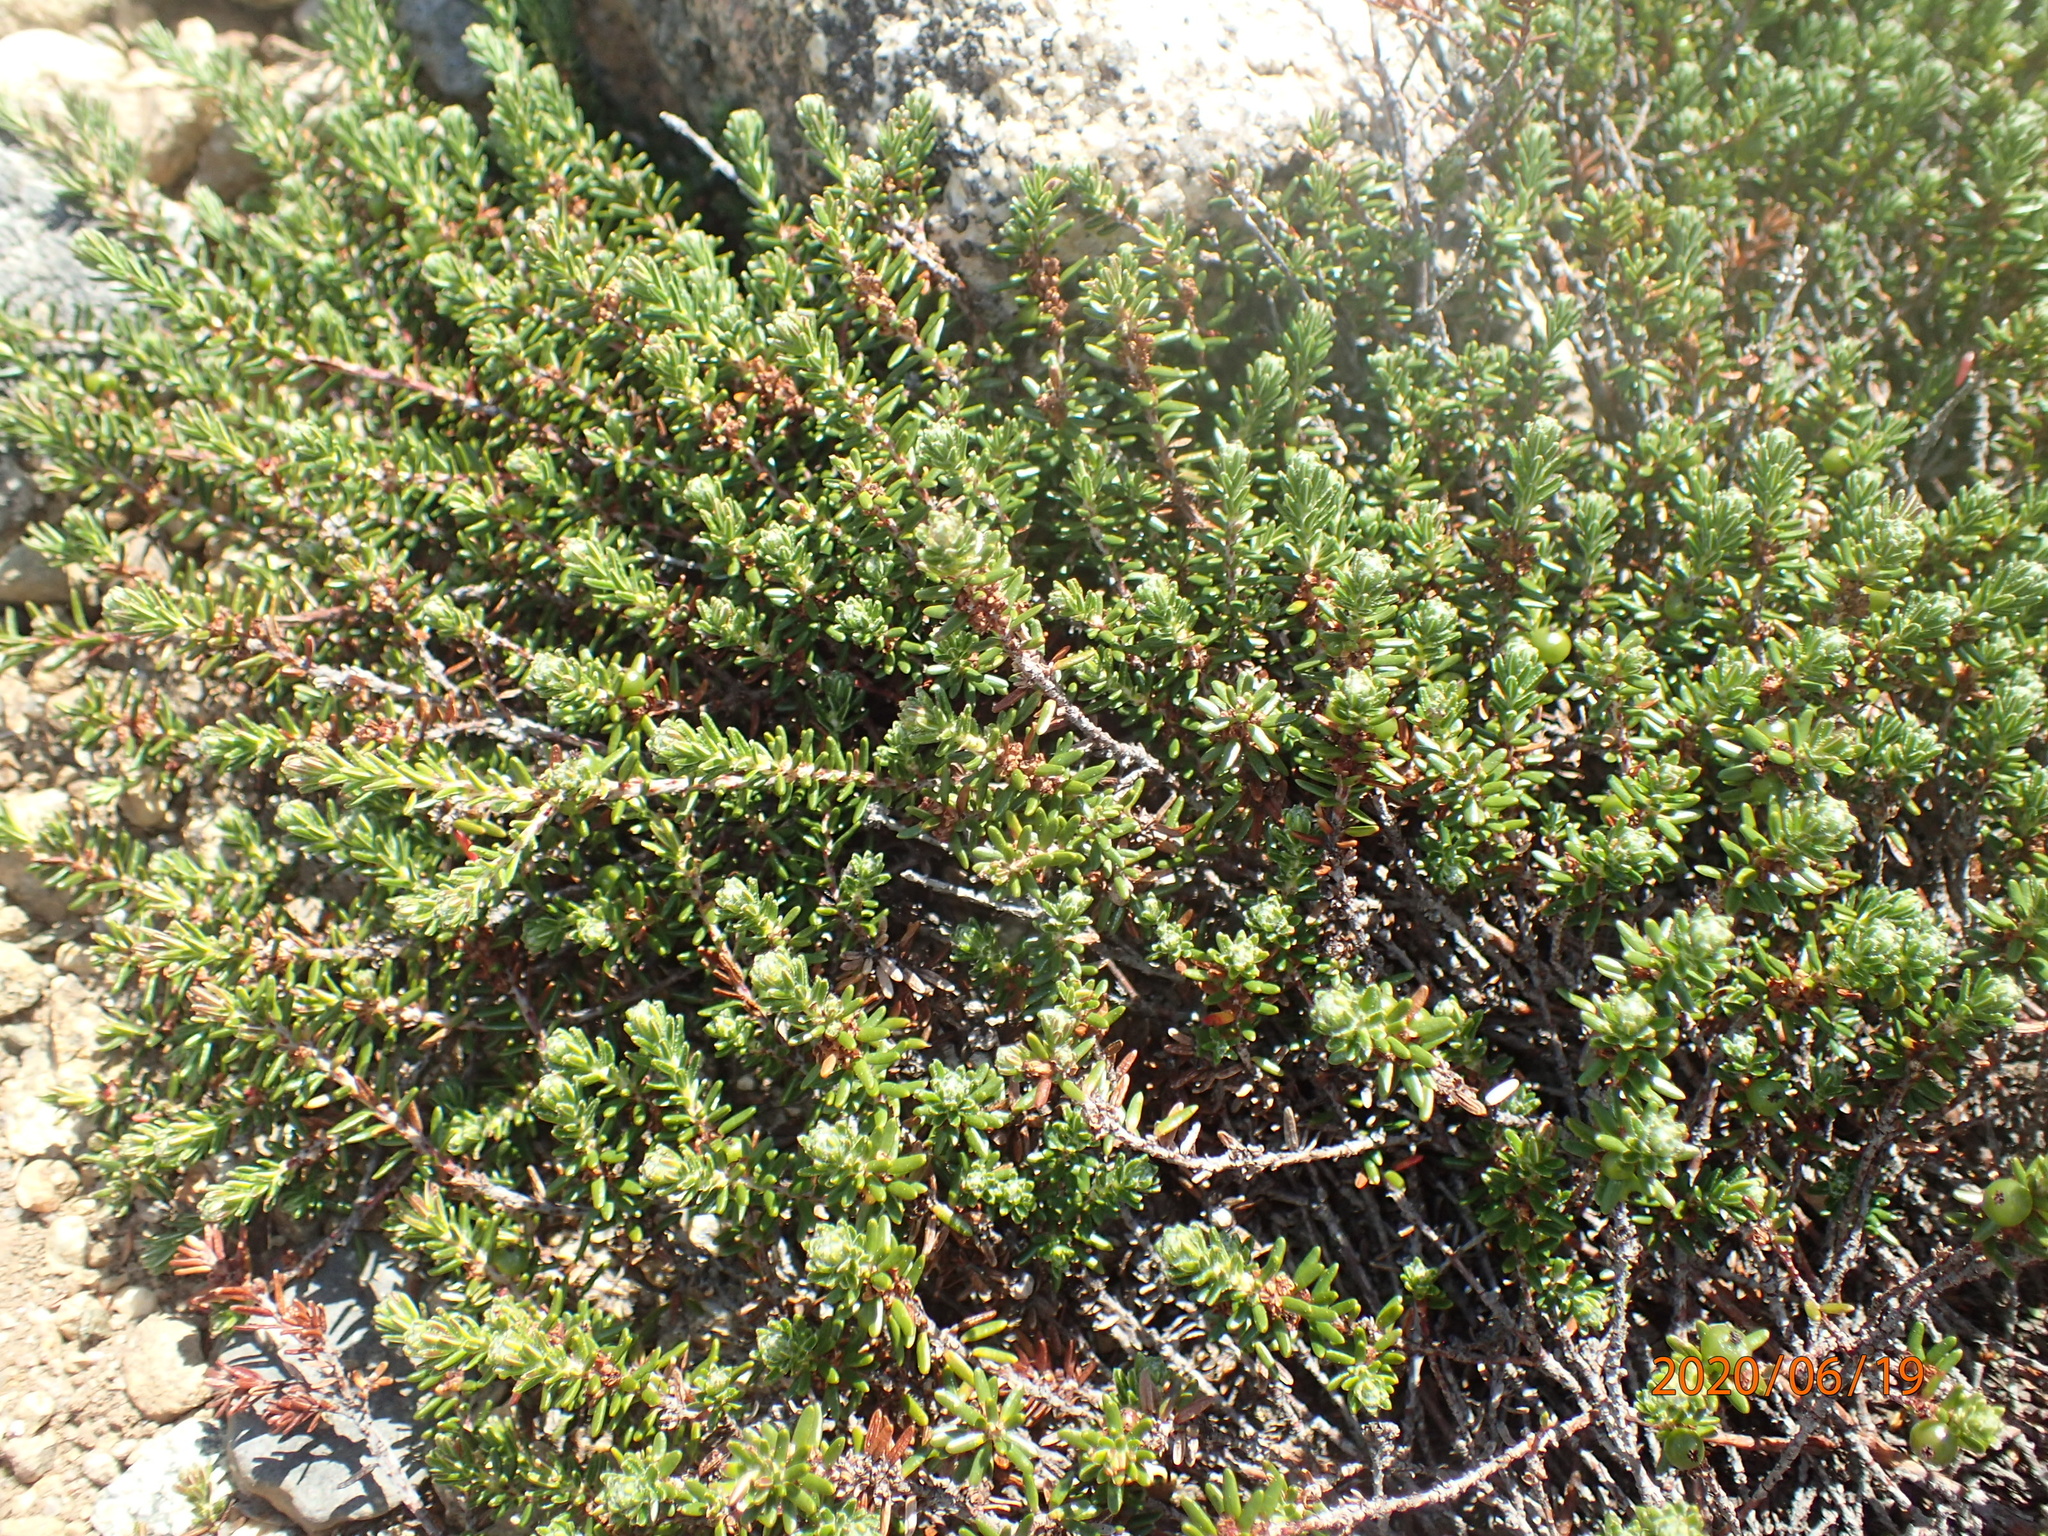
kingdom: Plantae
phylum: Tracheophyta
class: Magnoliopsida
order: Ericales
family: Ericaceae
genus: Empetrum
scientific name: Empetrum nigrum
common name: Black crowberry
